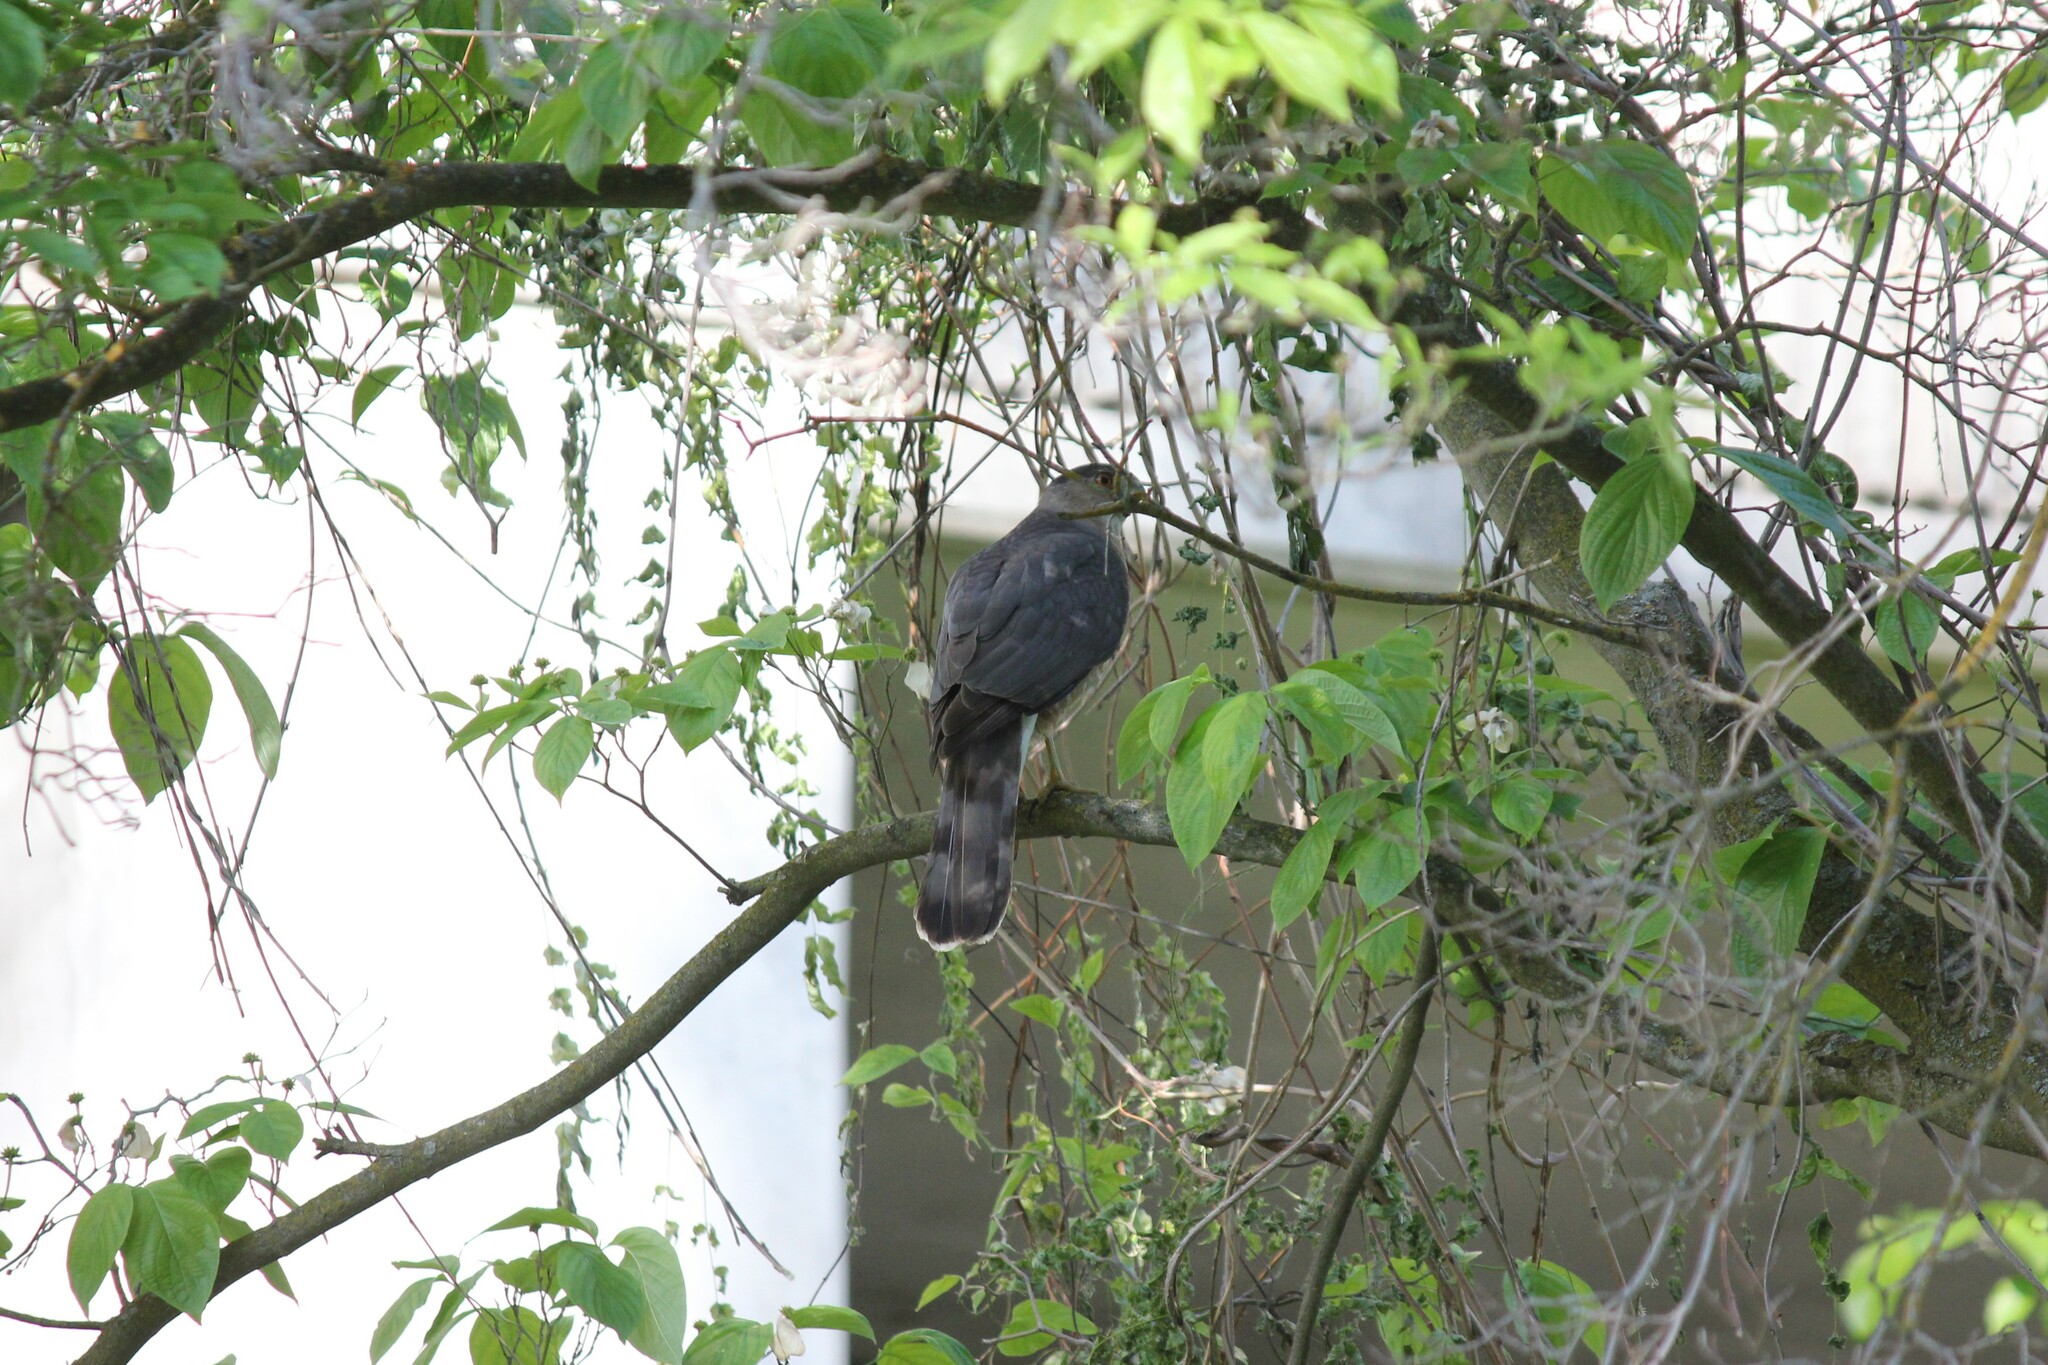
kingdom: Animalia
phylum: Chordata
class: Aves
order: Accipitriformes
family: Accipitridae
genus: Accipiter
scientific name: Accipiter cooperii
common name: Cooper's hawk
